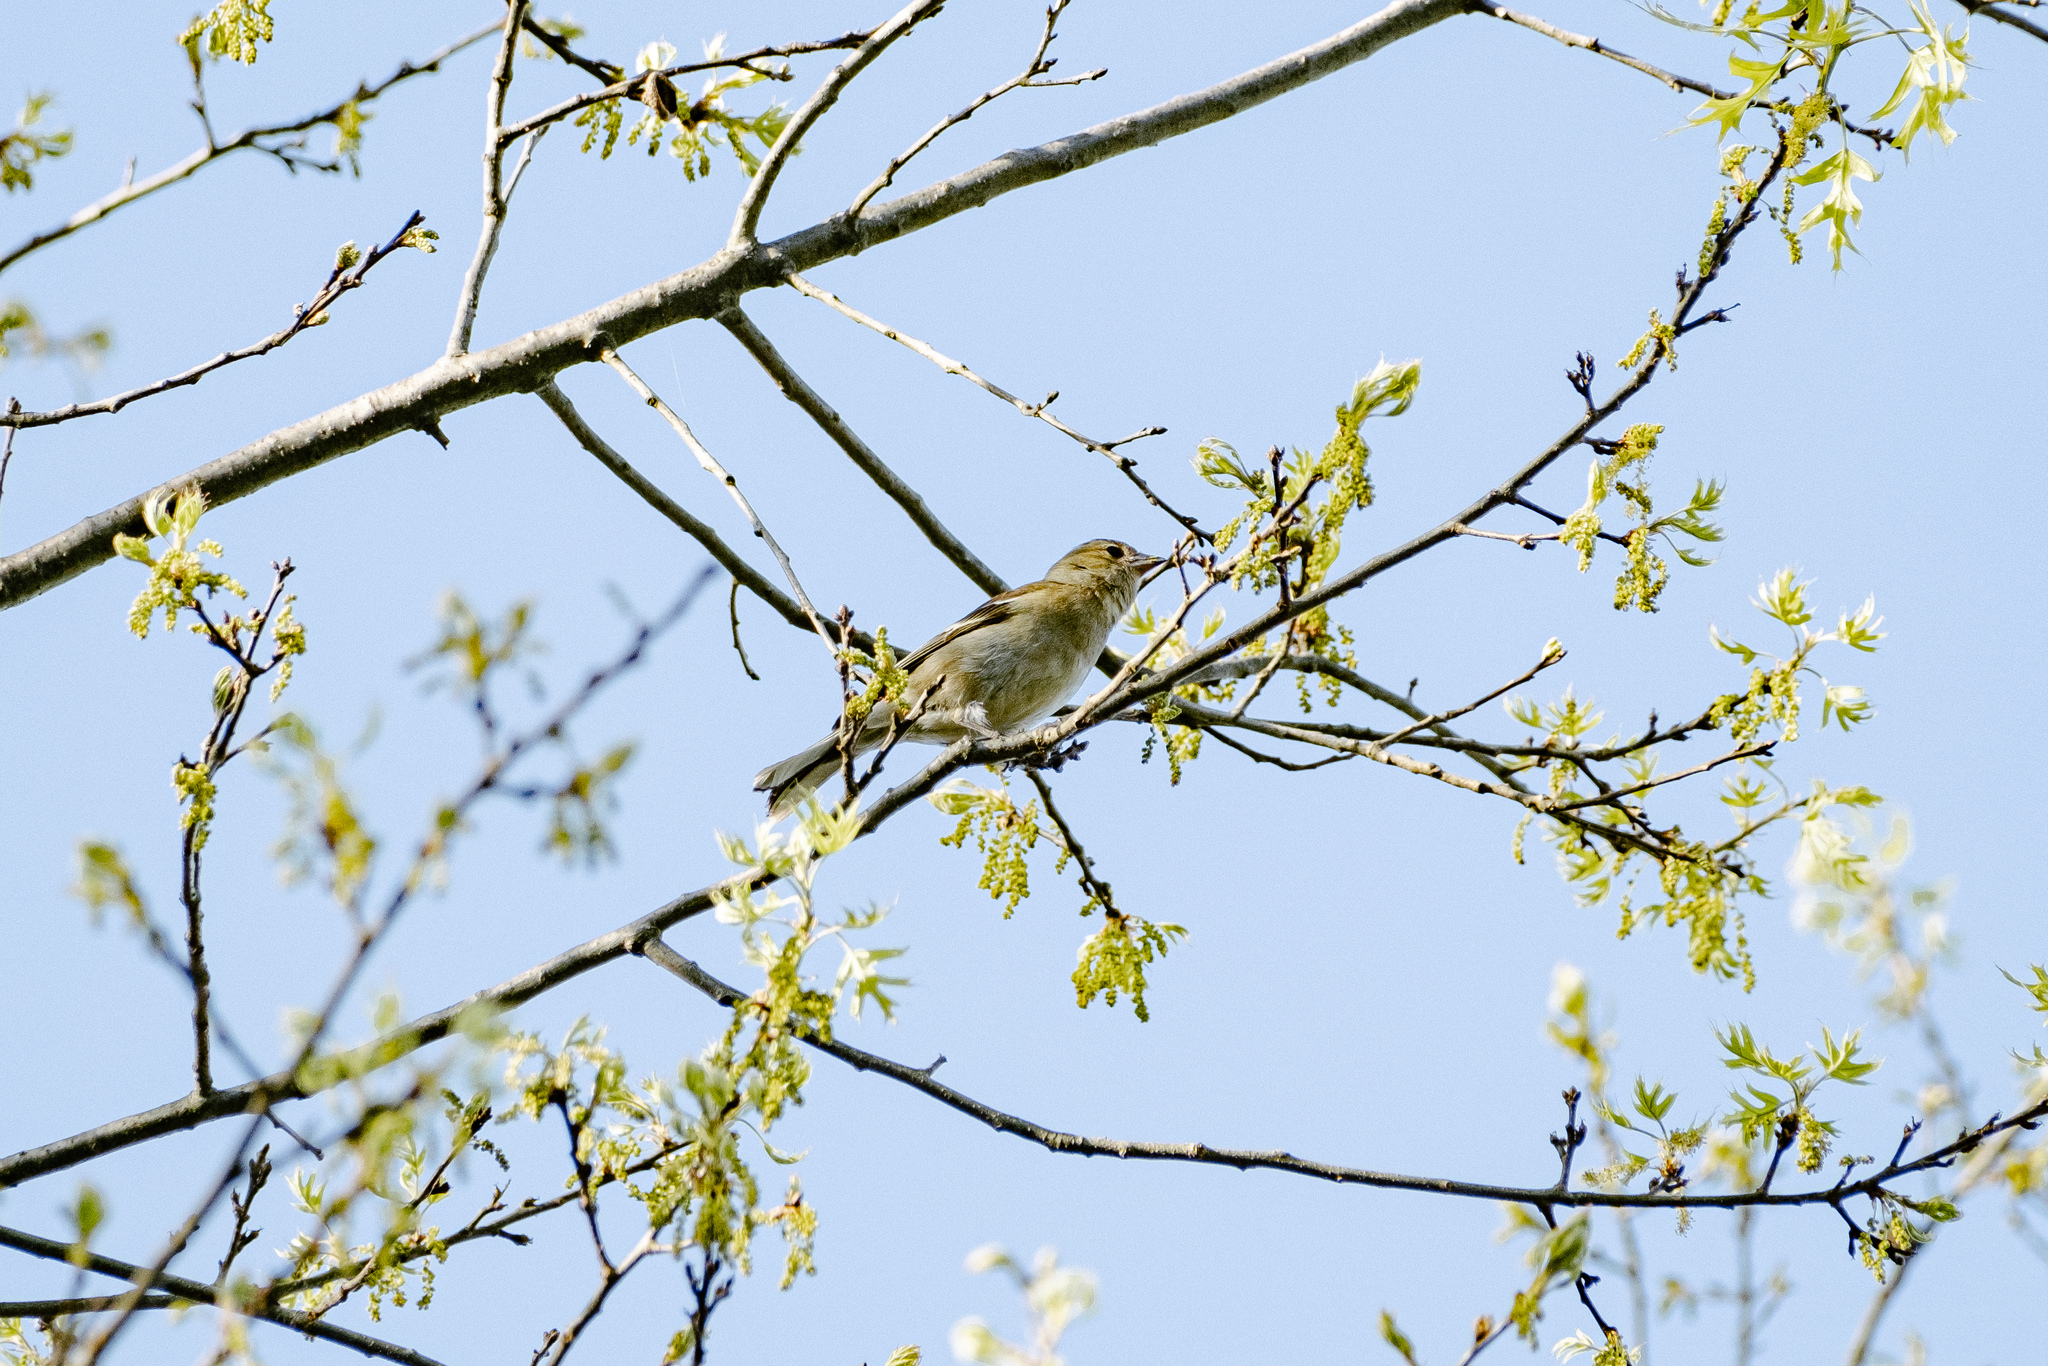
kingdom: Animalia
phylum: Chordata
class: Aves
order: Passeriformes
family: Fringillidae
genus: Fringilla
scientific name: Fringilla coelebs
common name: Common chaffinch
